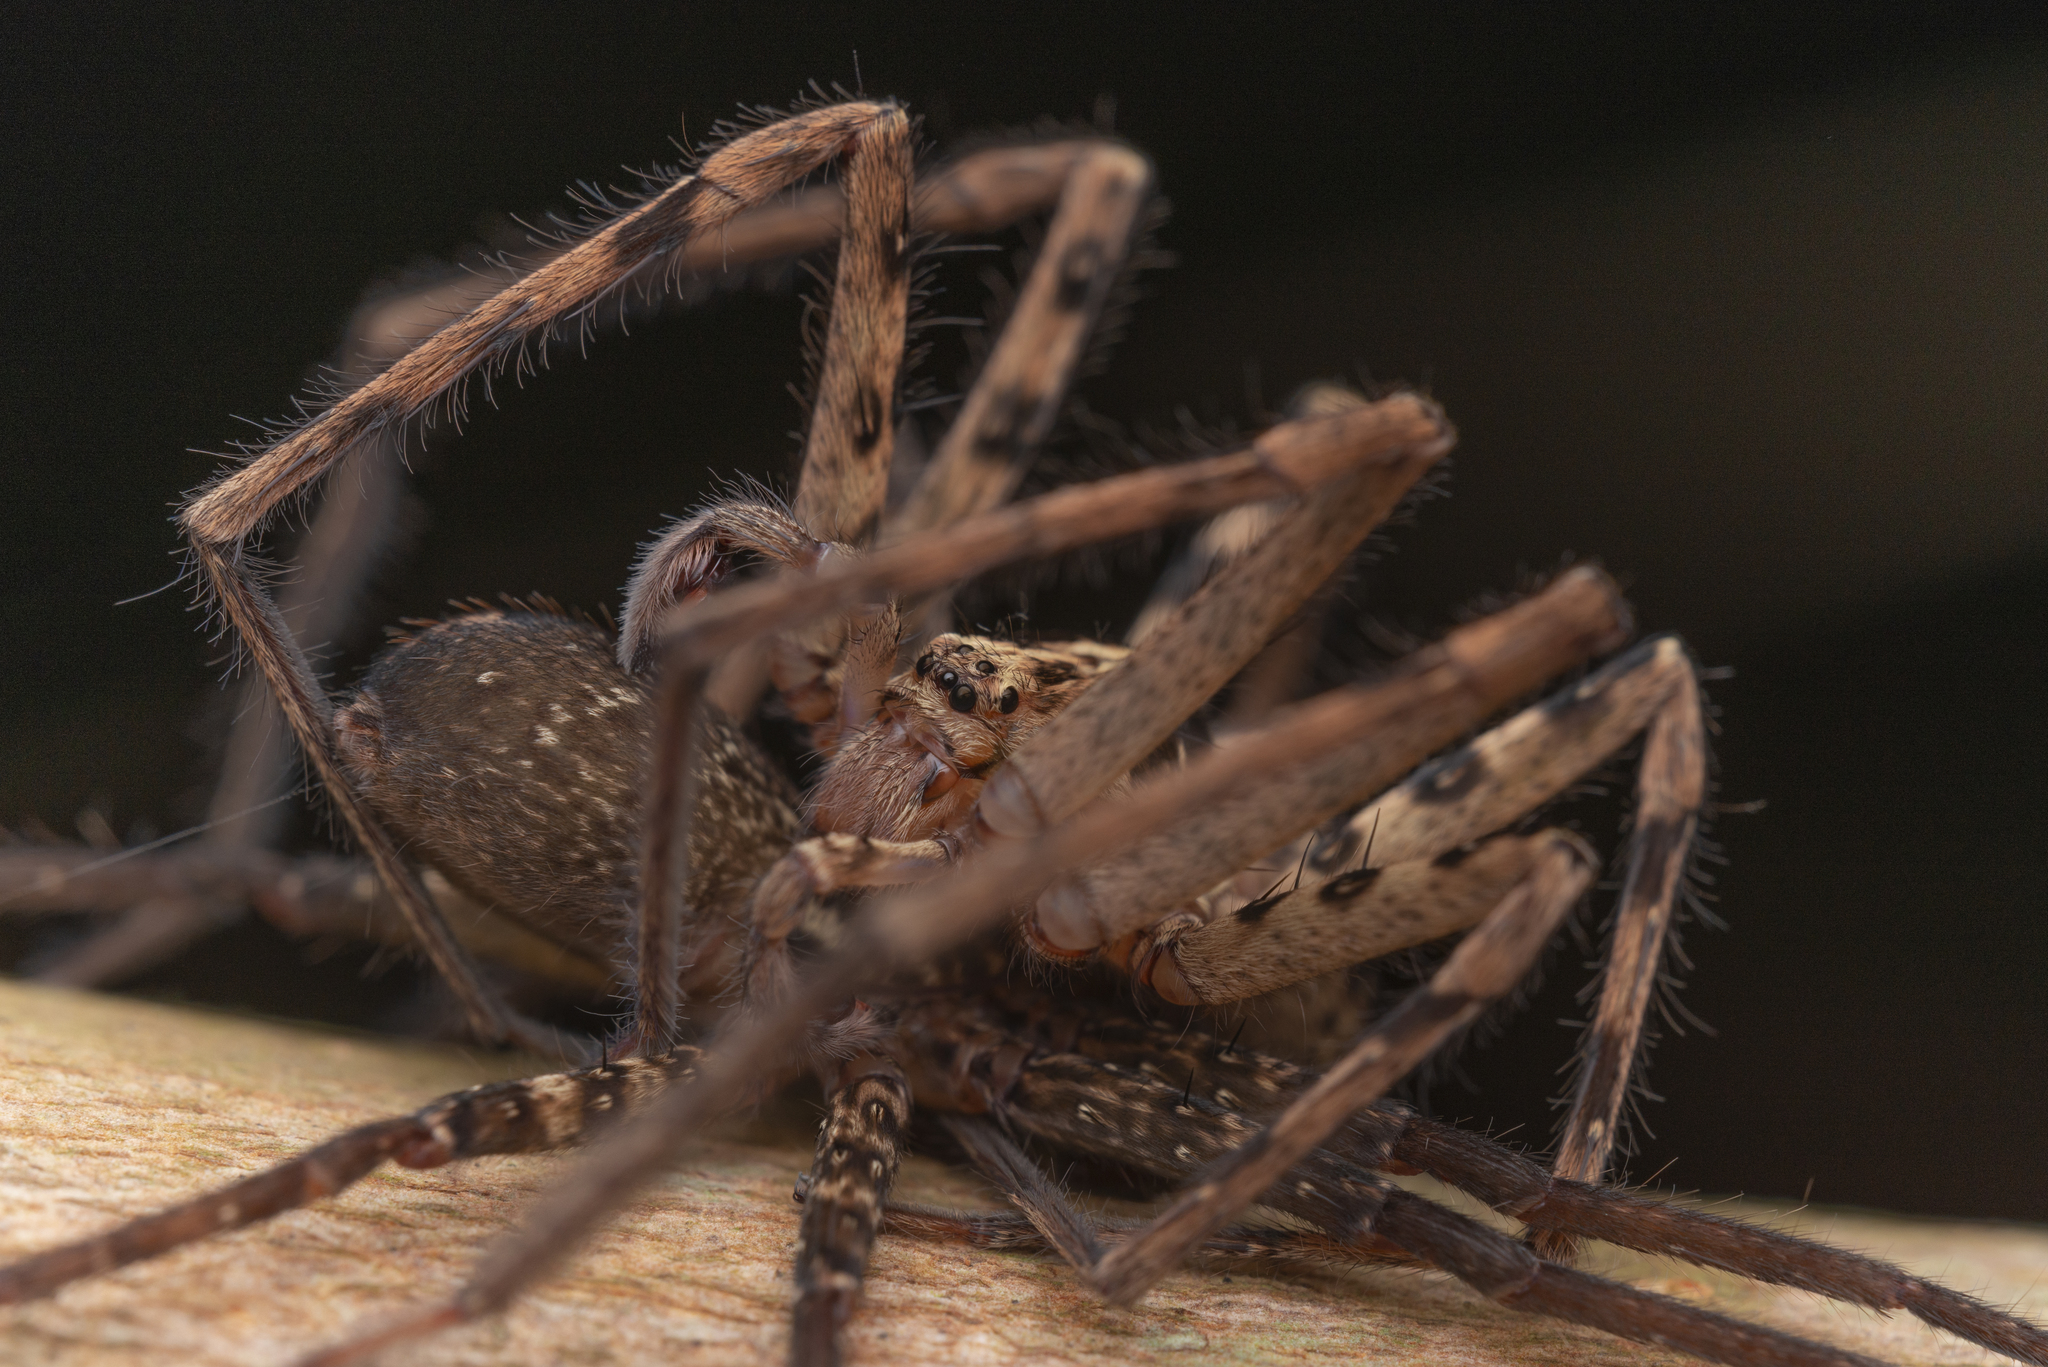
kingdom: Animalia
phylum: Arthropoda
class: Arachnida
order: Araneae
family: Sparassidae
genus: Heteropoda
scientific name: Heteropoda amphora
